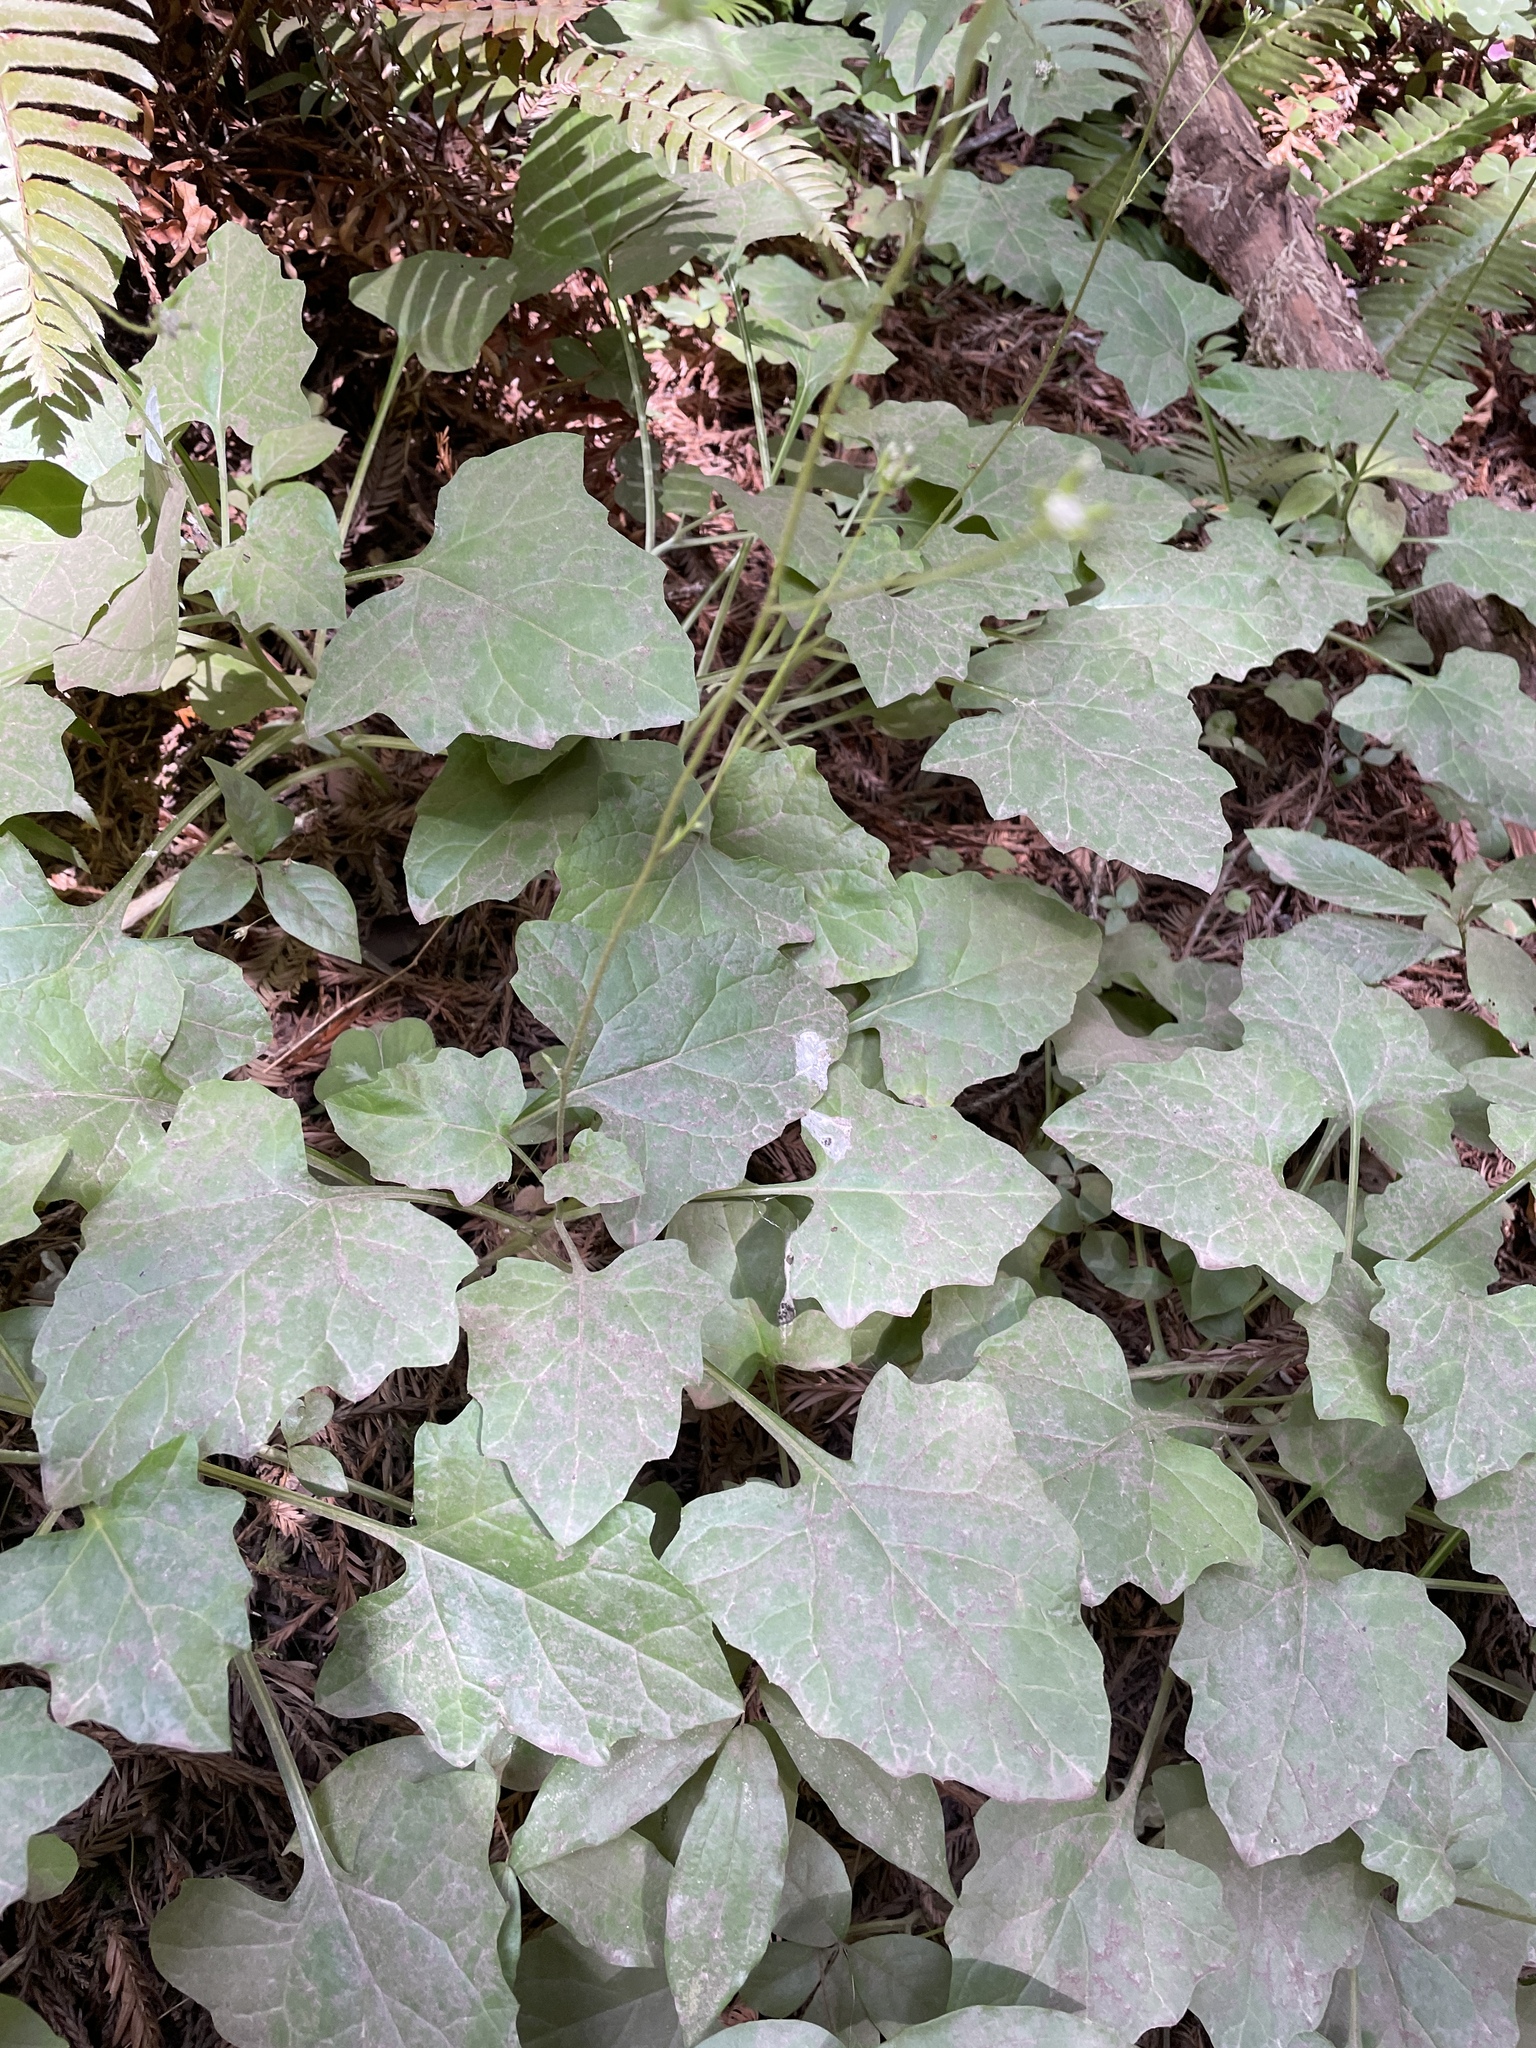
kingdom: Plantae
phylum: Tracheophyta
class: Magnoliopsida
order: Asterales
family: Asteraceae
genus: Adenocaulon
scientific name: Adenocaulon bicolor
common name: Trailplant
